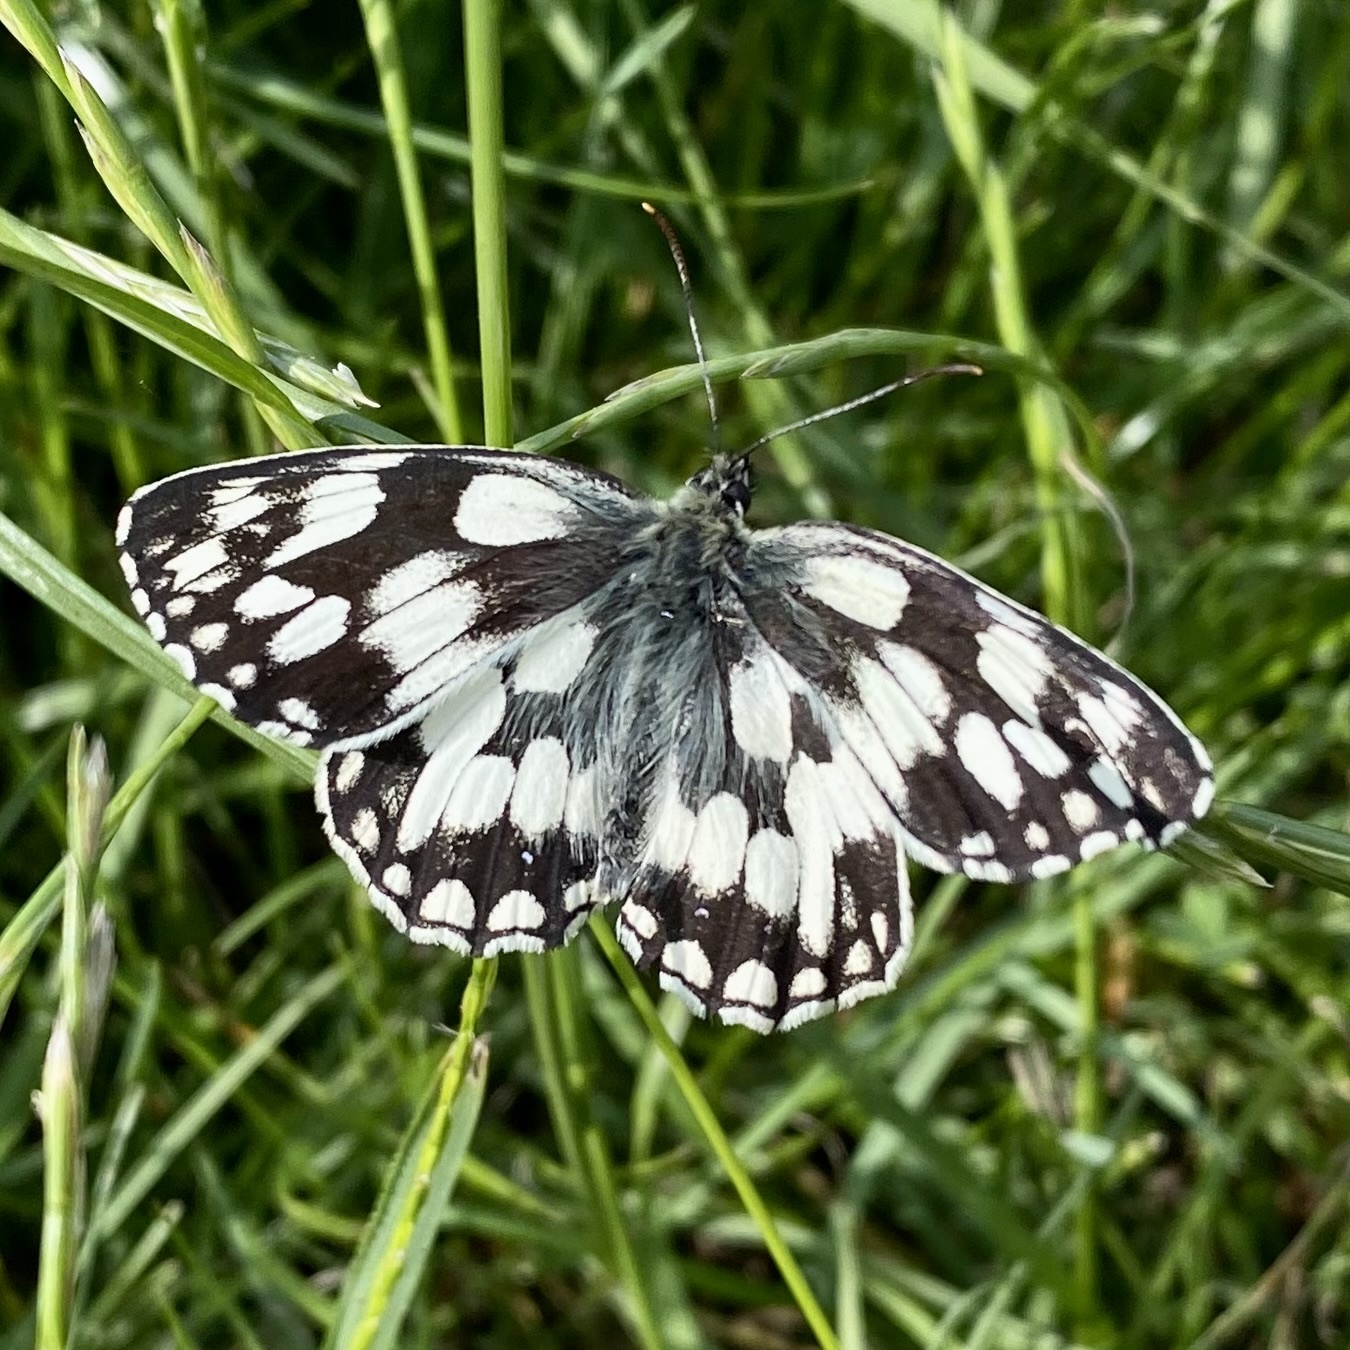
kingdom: Animalia
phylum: Arthropoda
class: Insecta
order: Lepidoptera
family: Nymphalidae
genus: Melanargia
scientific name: Melanargia galathea
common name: Marbled white
